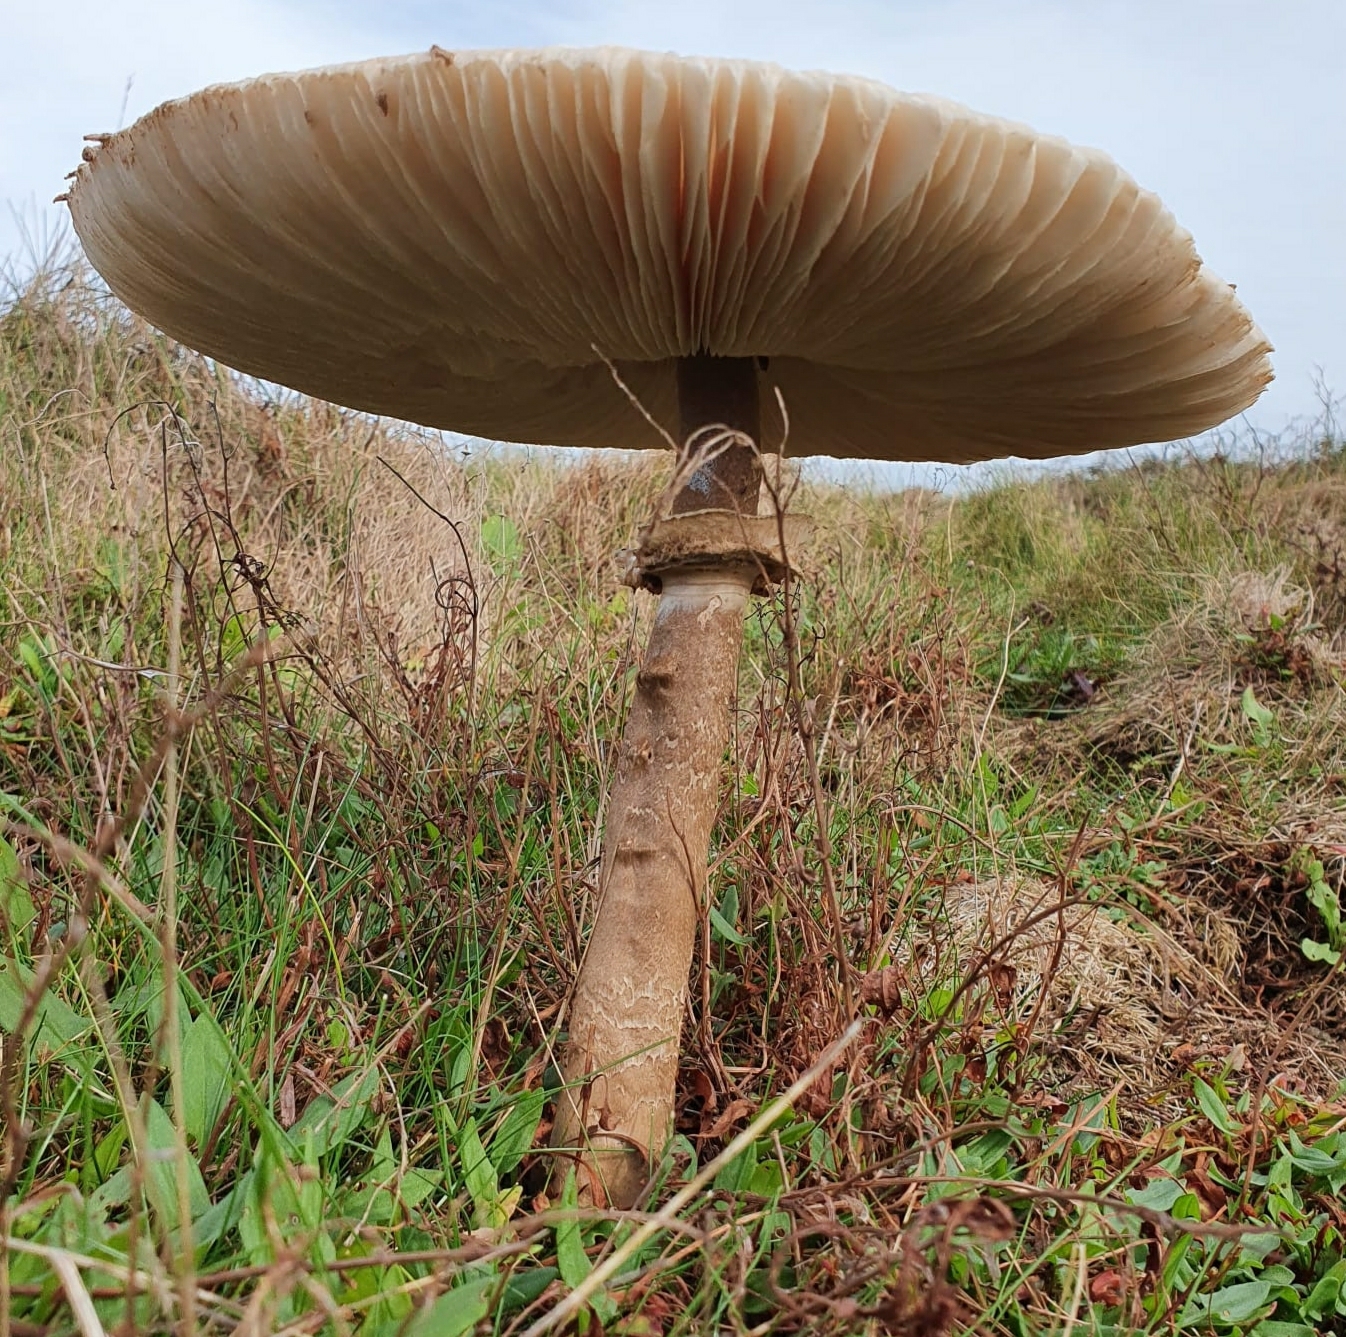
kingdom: Fungi
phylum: Basidiomycota
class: Agaricomycetes
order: Agaricales
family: Agaricaceae
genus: Macrolepiota
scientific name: Macrolepiota procera
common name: Parasol
